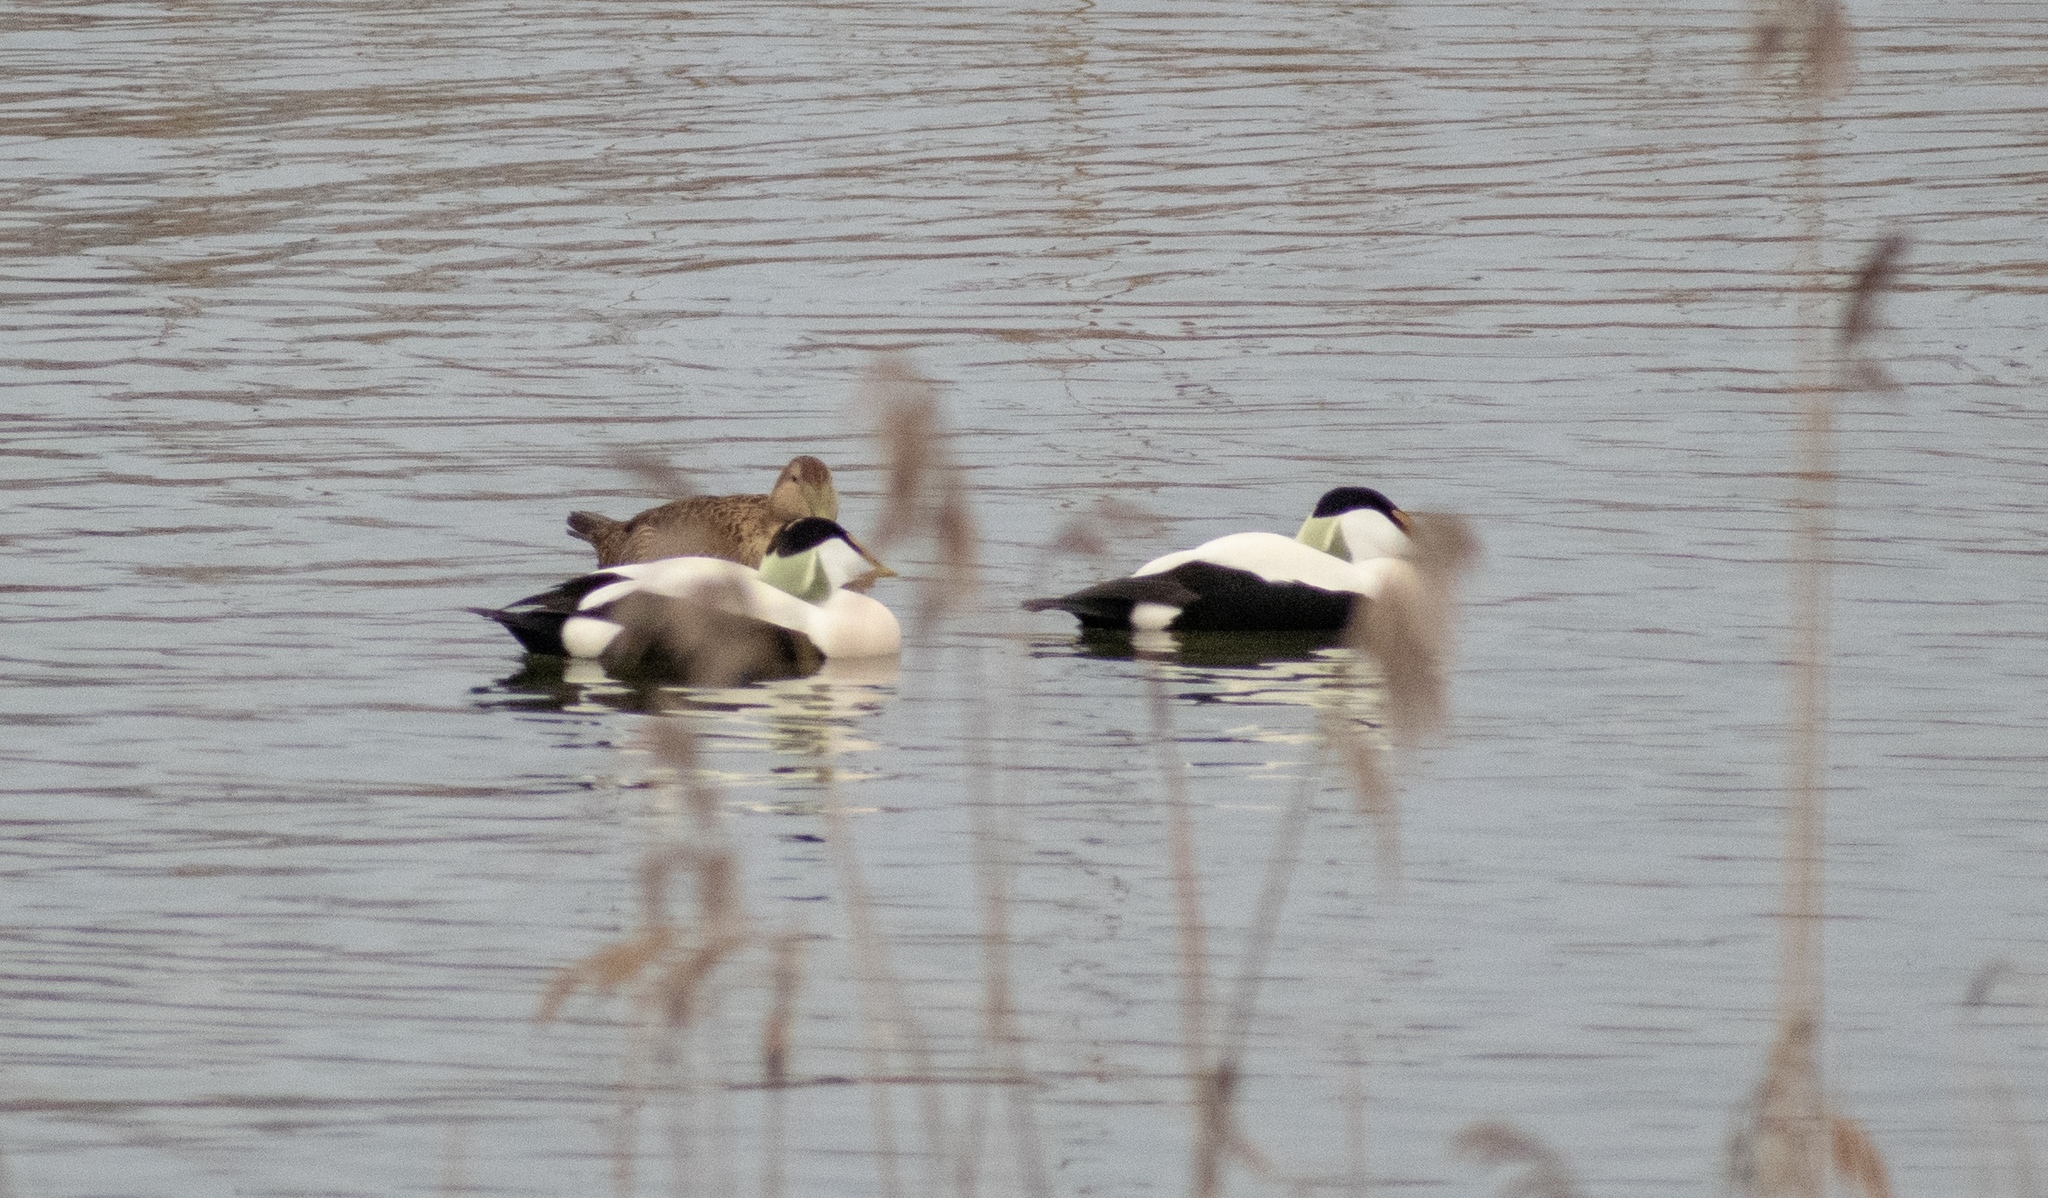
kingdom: Animalia
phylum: Chordata
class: Aves
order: Anseriformes
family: Anatidae
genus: Somateria
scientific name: Somateria mollissima
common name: Common eider
